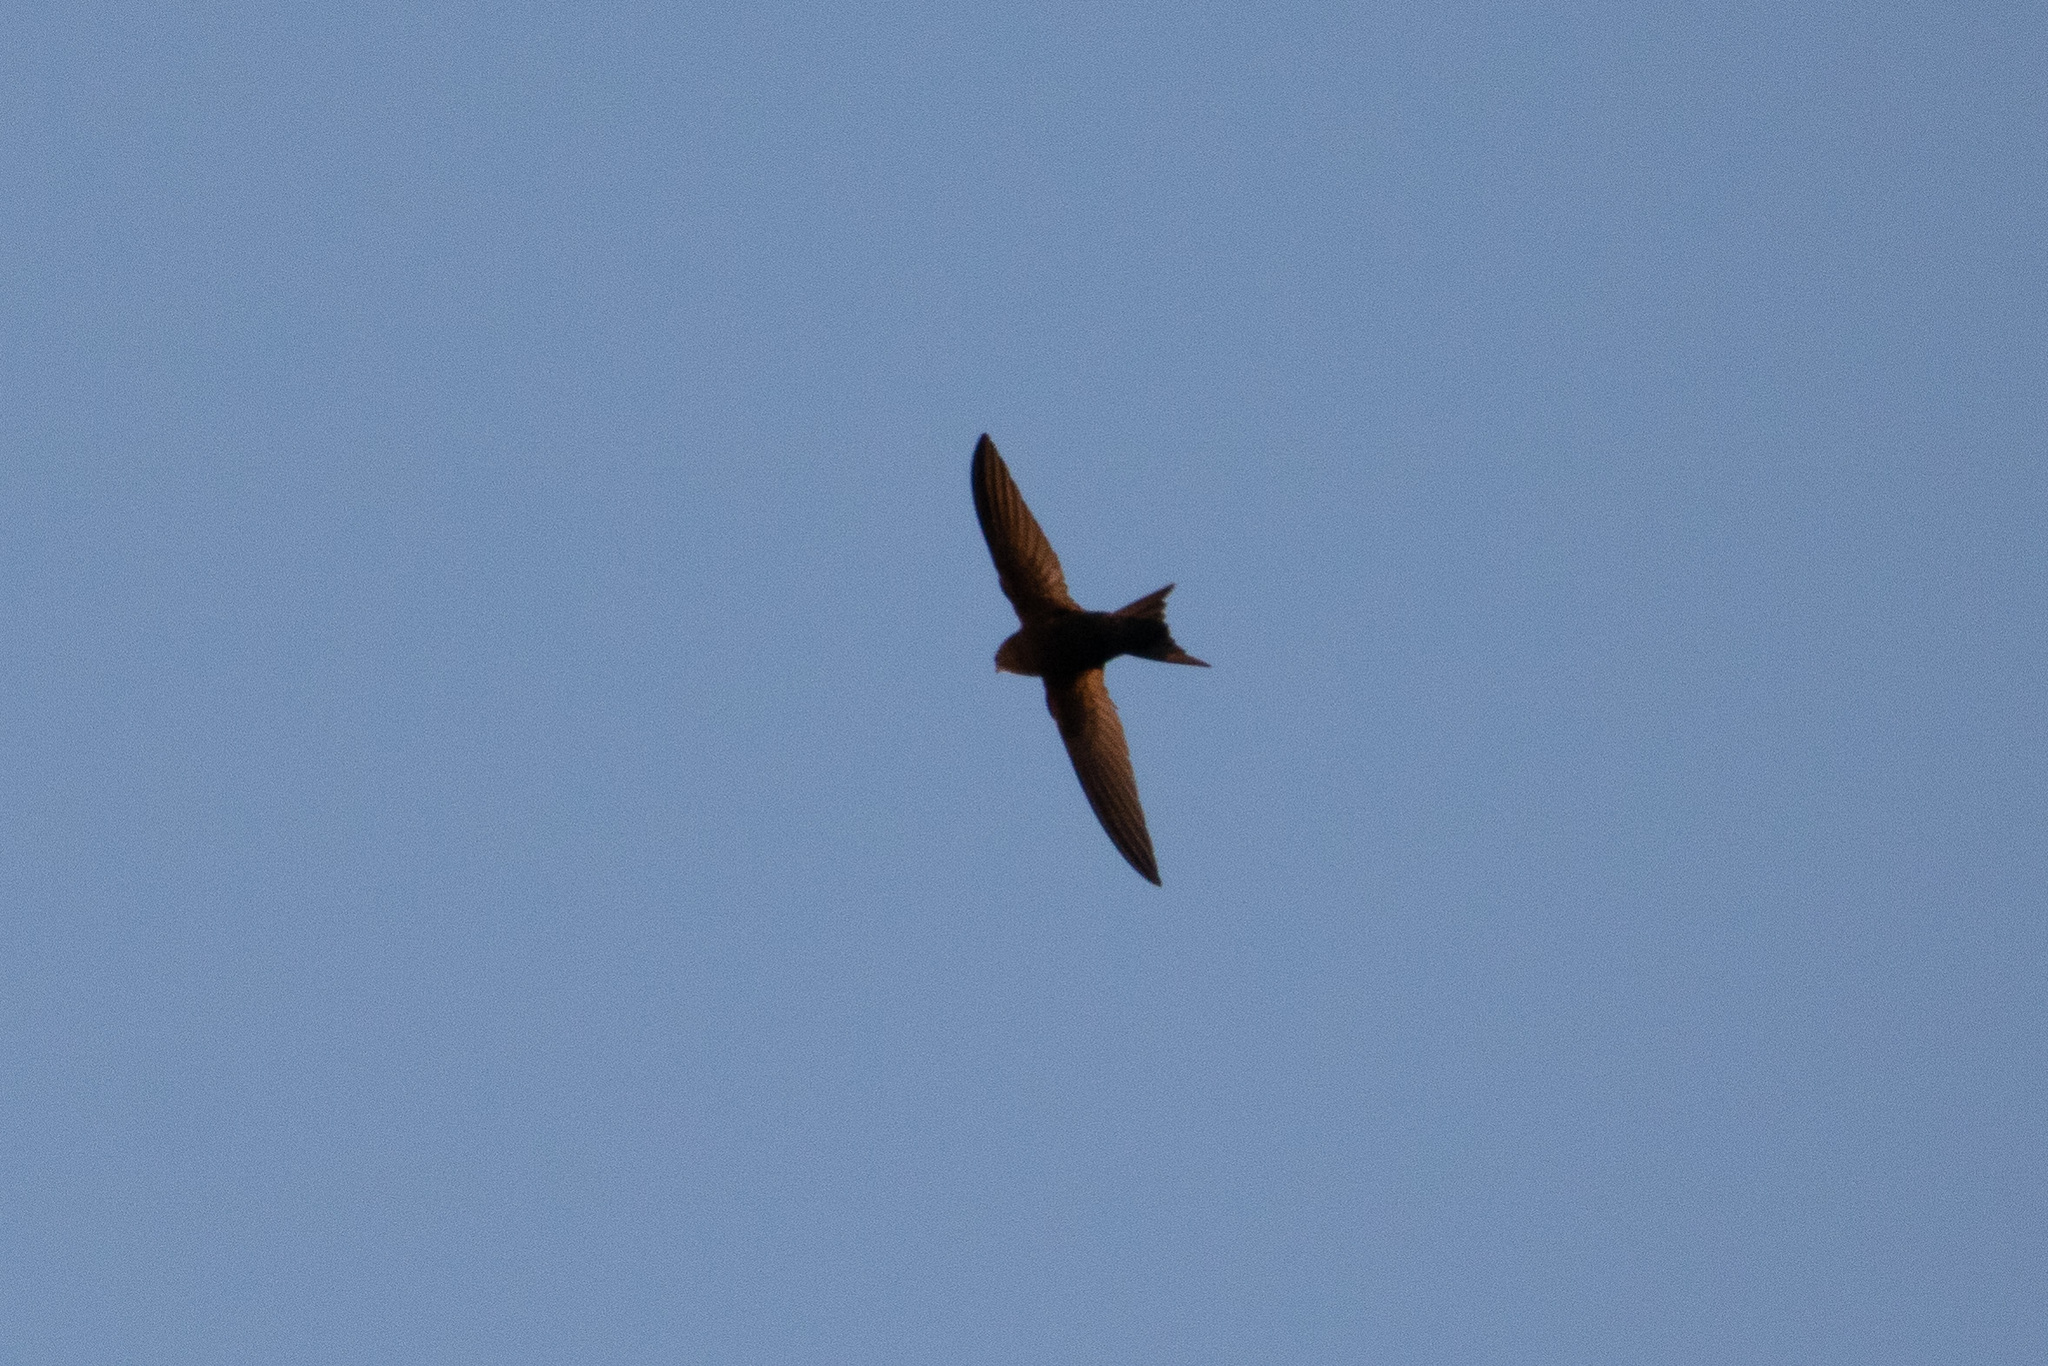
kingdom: Animalia
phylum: Chordata
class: Aves
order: Apodiformes
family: Apodidae
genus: Apus
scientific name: Apus apus
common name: Common swift
